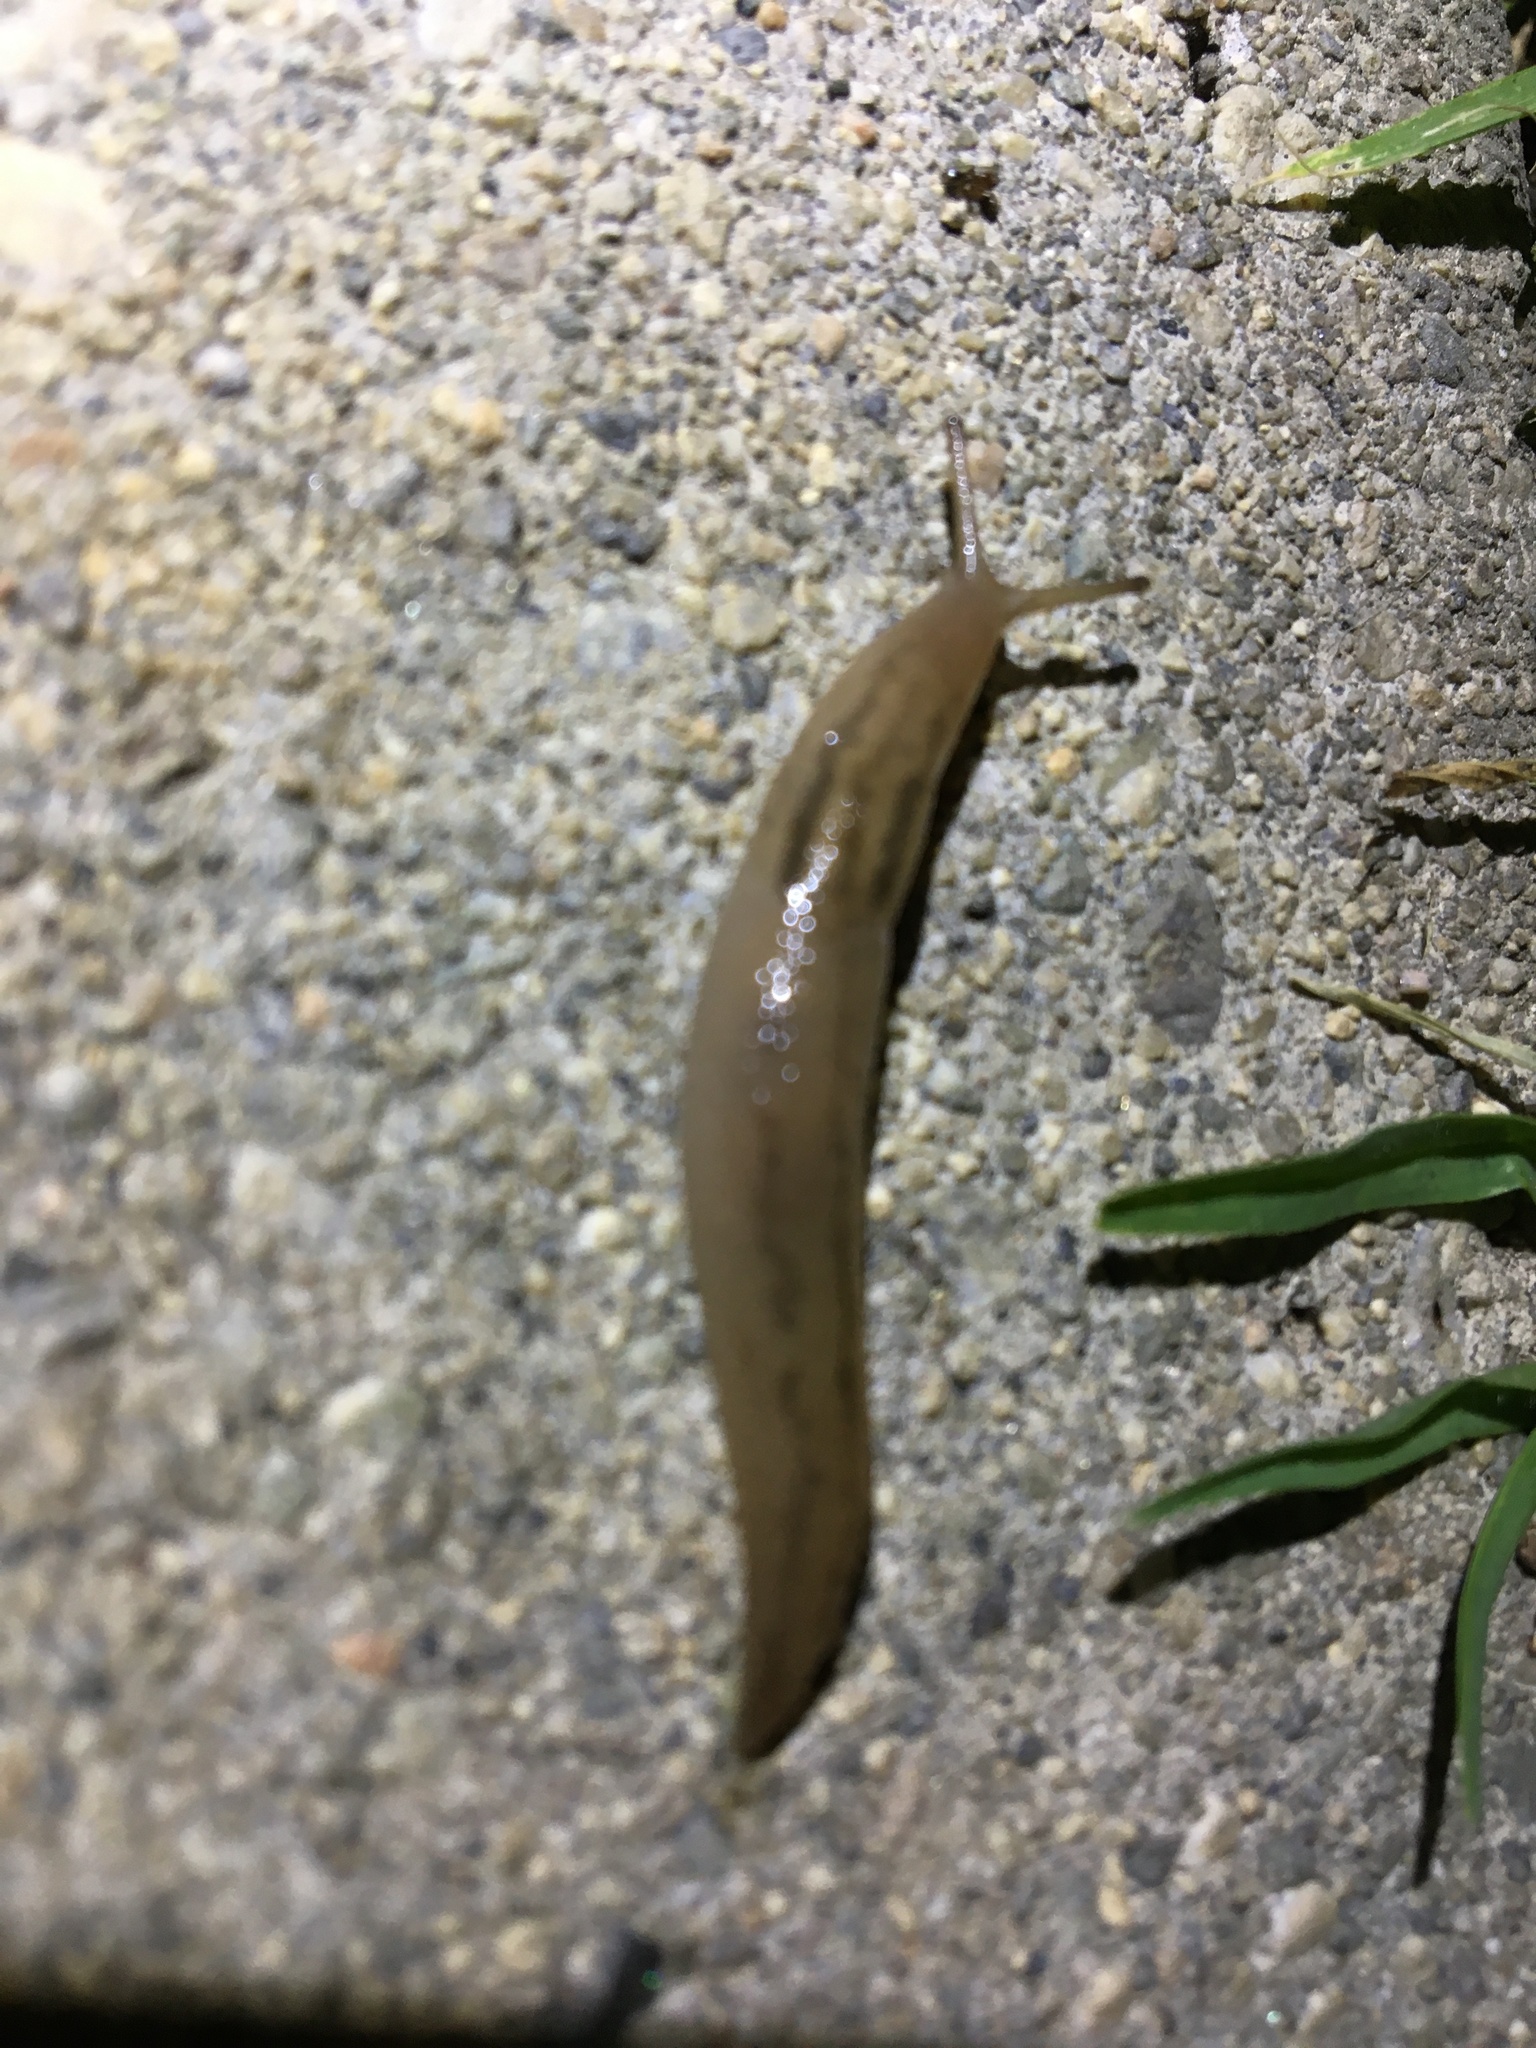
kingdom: Animalia
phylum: Mollusca
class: Gastropoda
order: Stylommatophora
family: Limacidae
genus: Ambigolimax
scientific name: Ambigolimax
